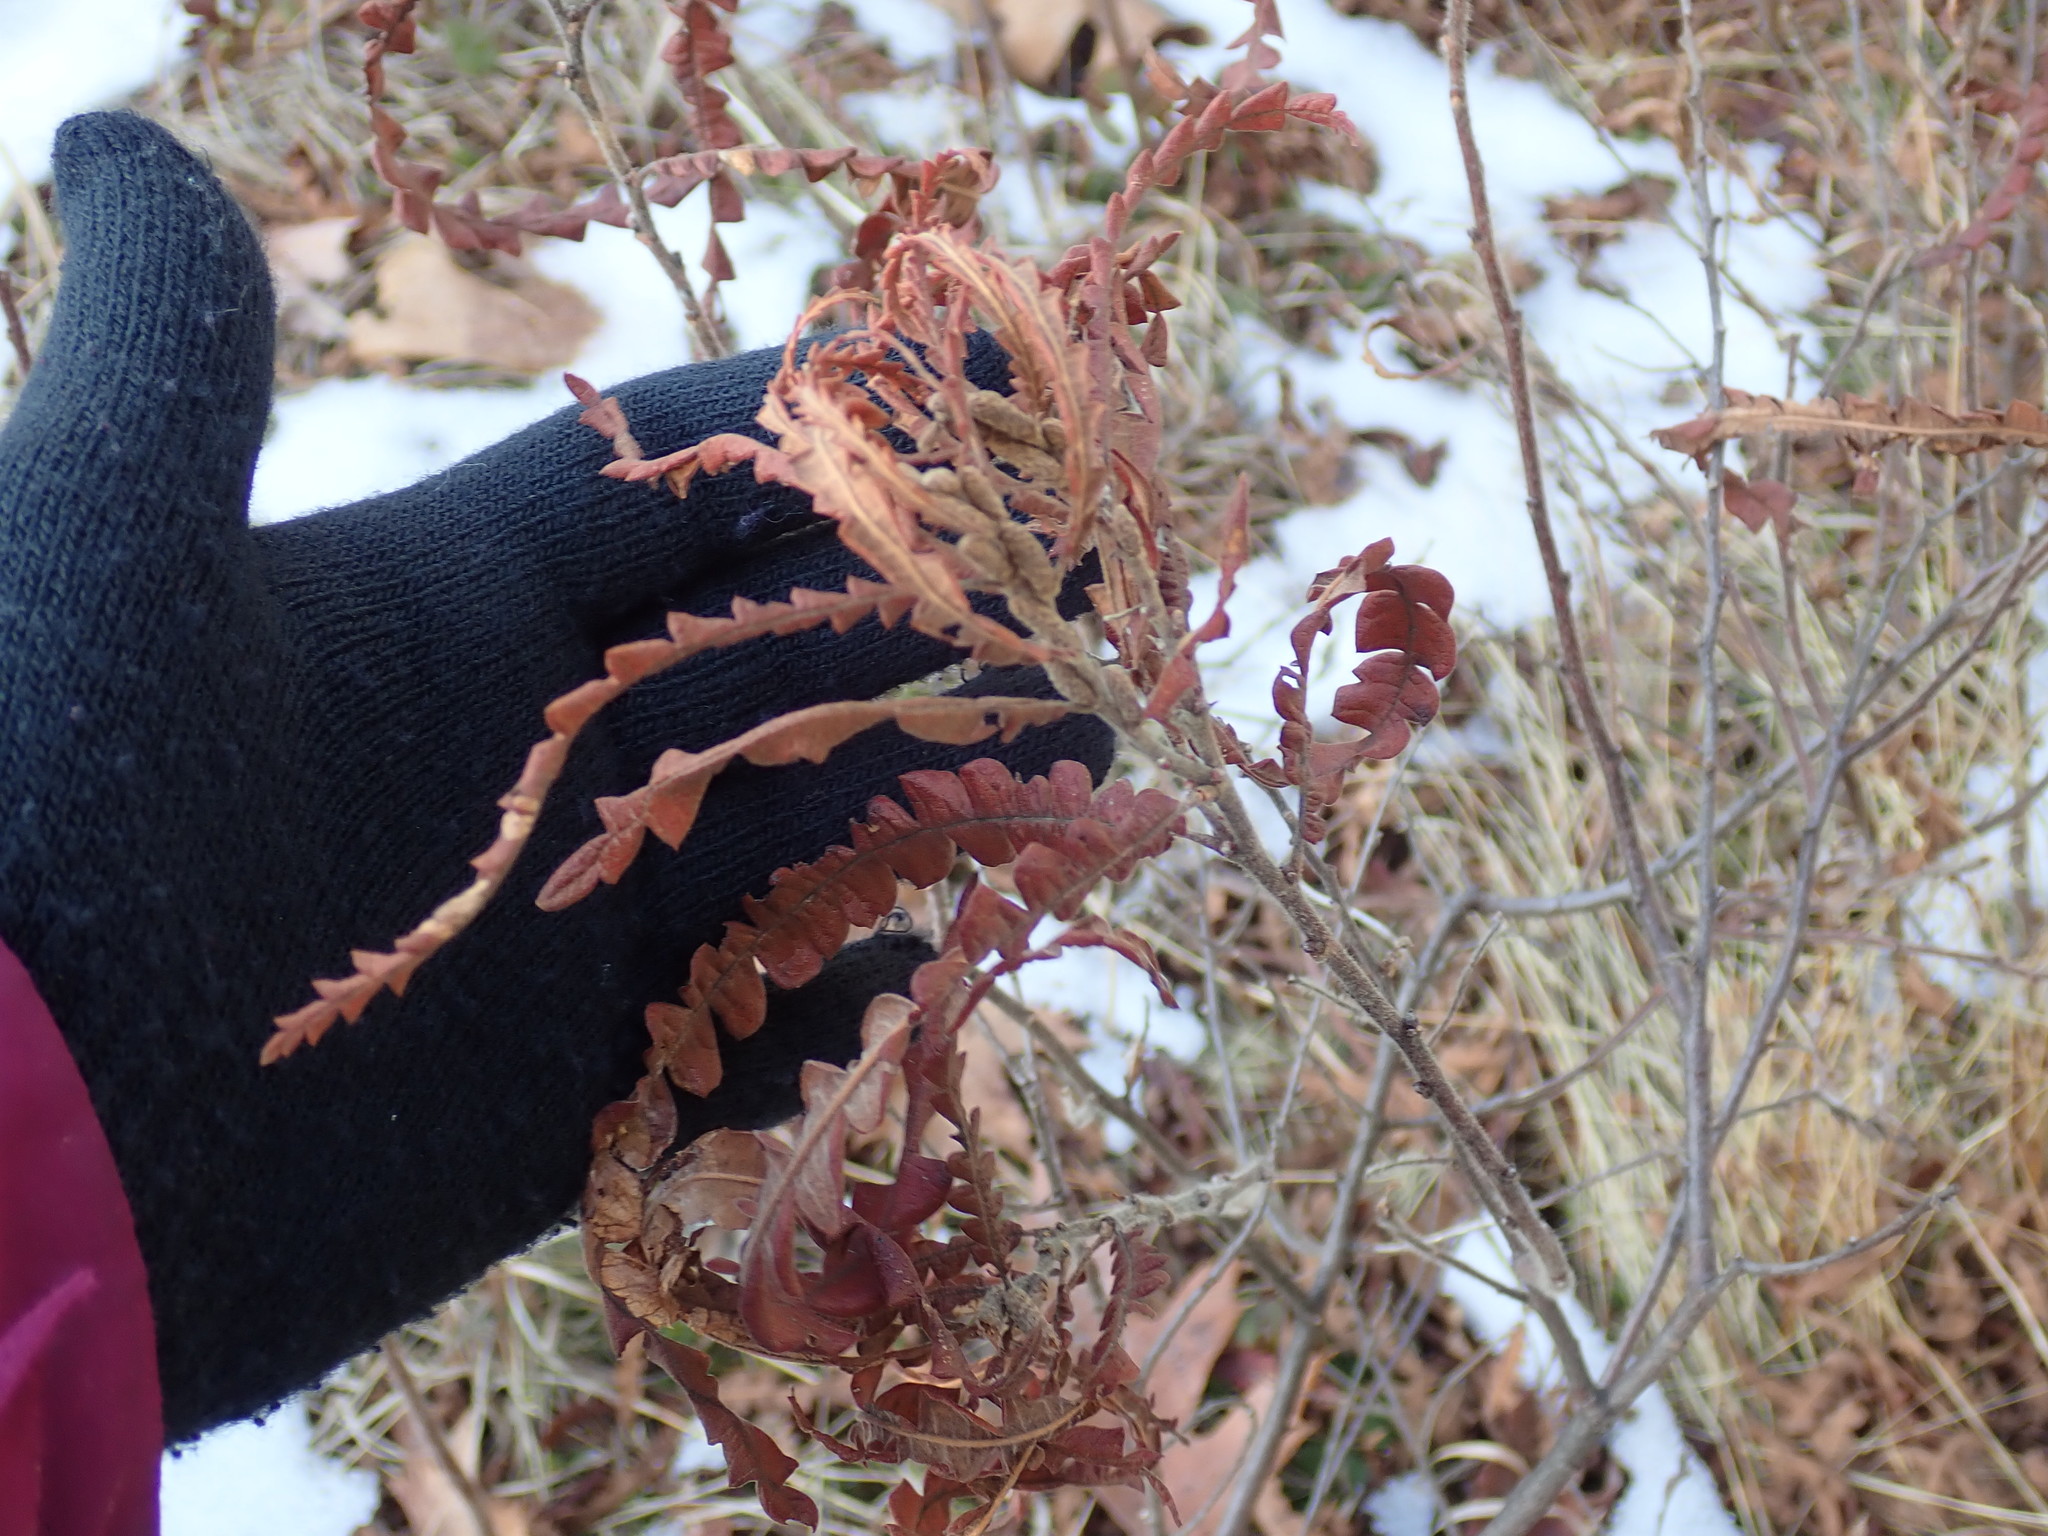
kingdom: Plantae
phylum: Tracheophyta
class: Magnoliopsida
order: Fagales
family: Myricaceae
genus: Comptonia
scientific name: Comptonia peregrina
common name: Sweet-fern
